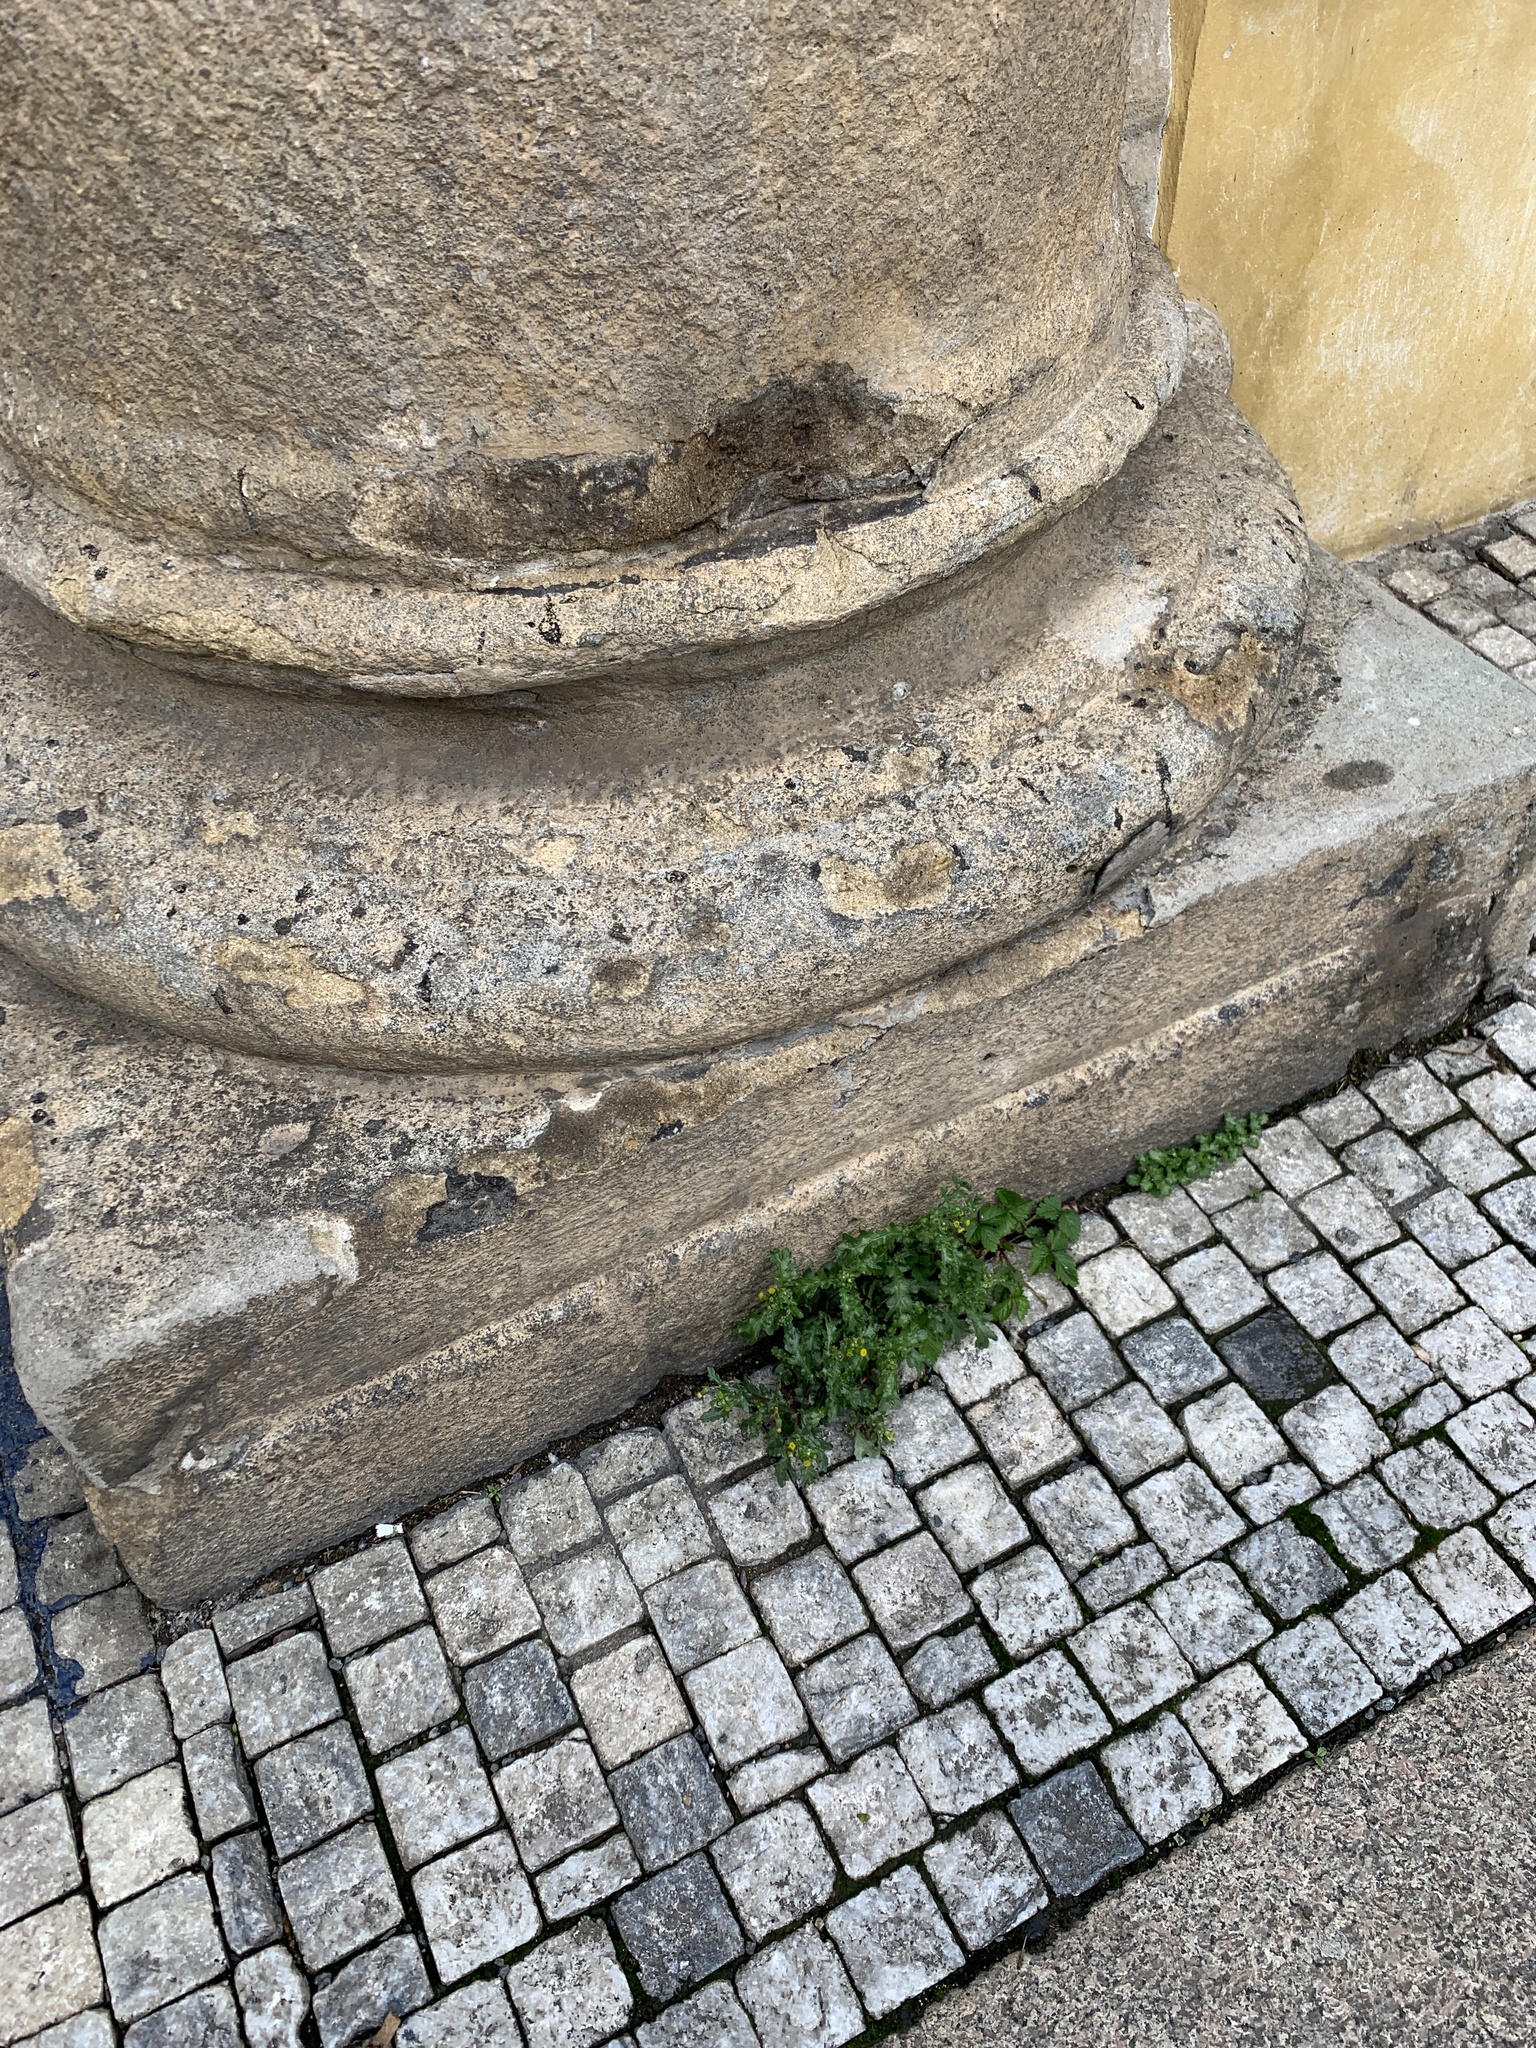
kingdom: Plantae
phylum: Tracheophyta
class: Magnoliopsida
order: Asterales
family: Asteraceae
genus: Senecio
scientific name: Senecio vulgaris
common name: Old-man-in-the-spring
